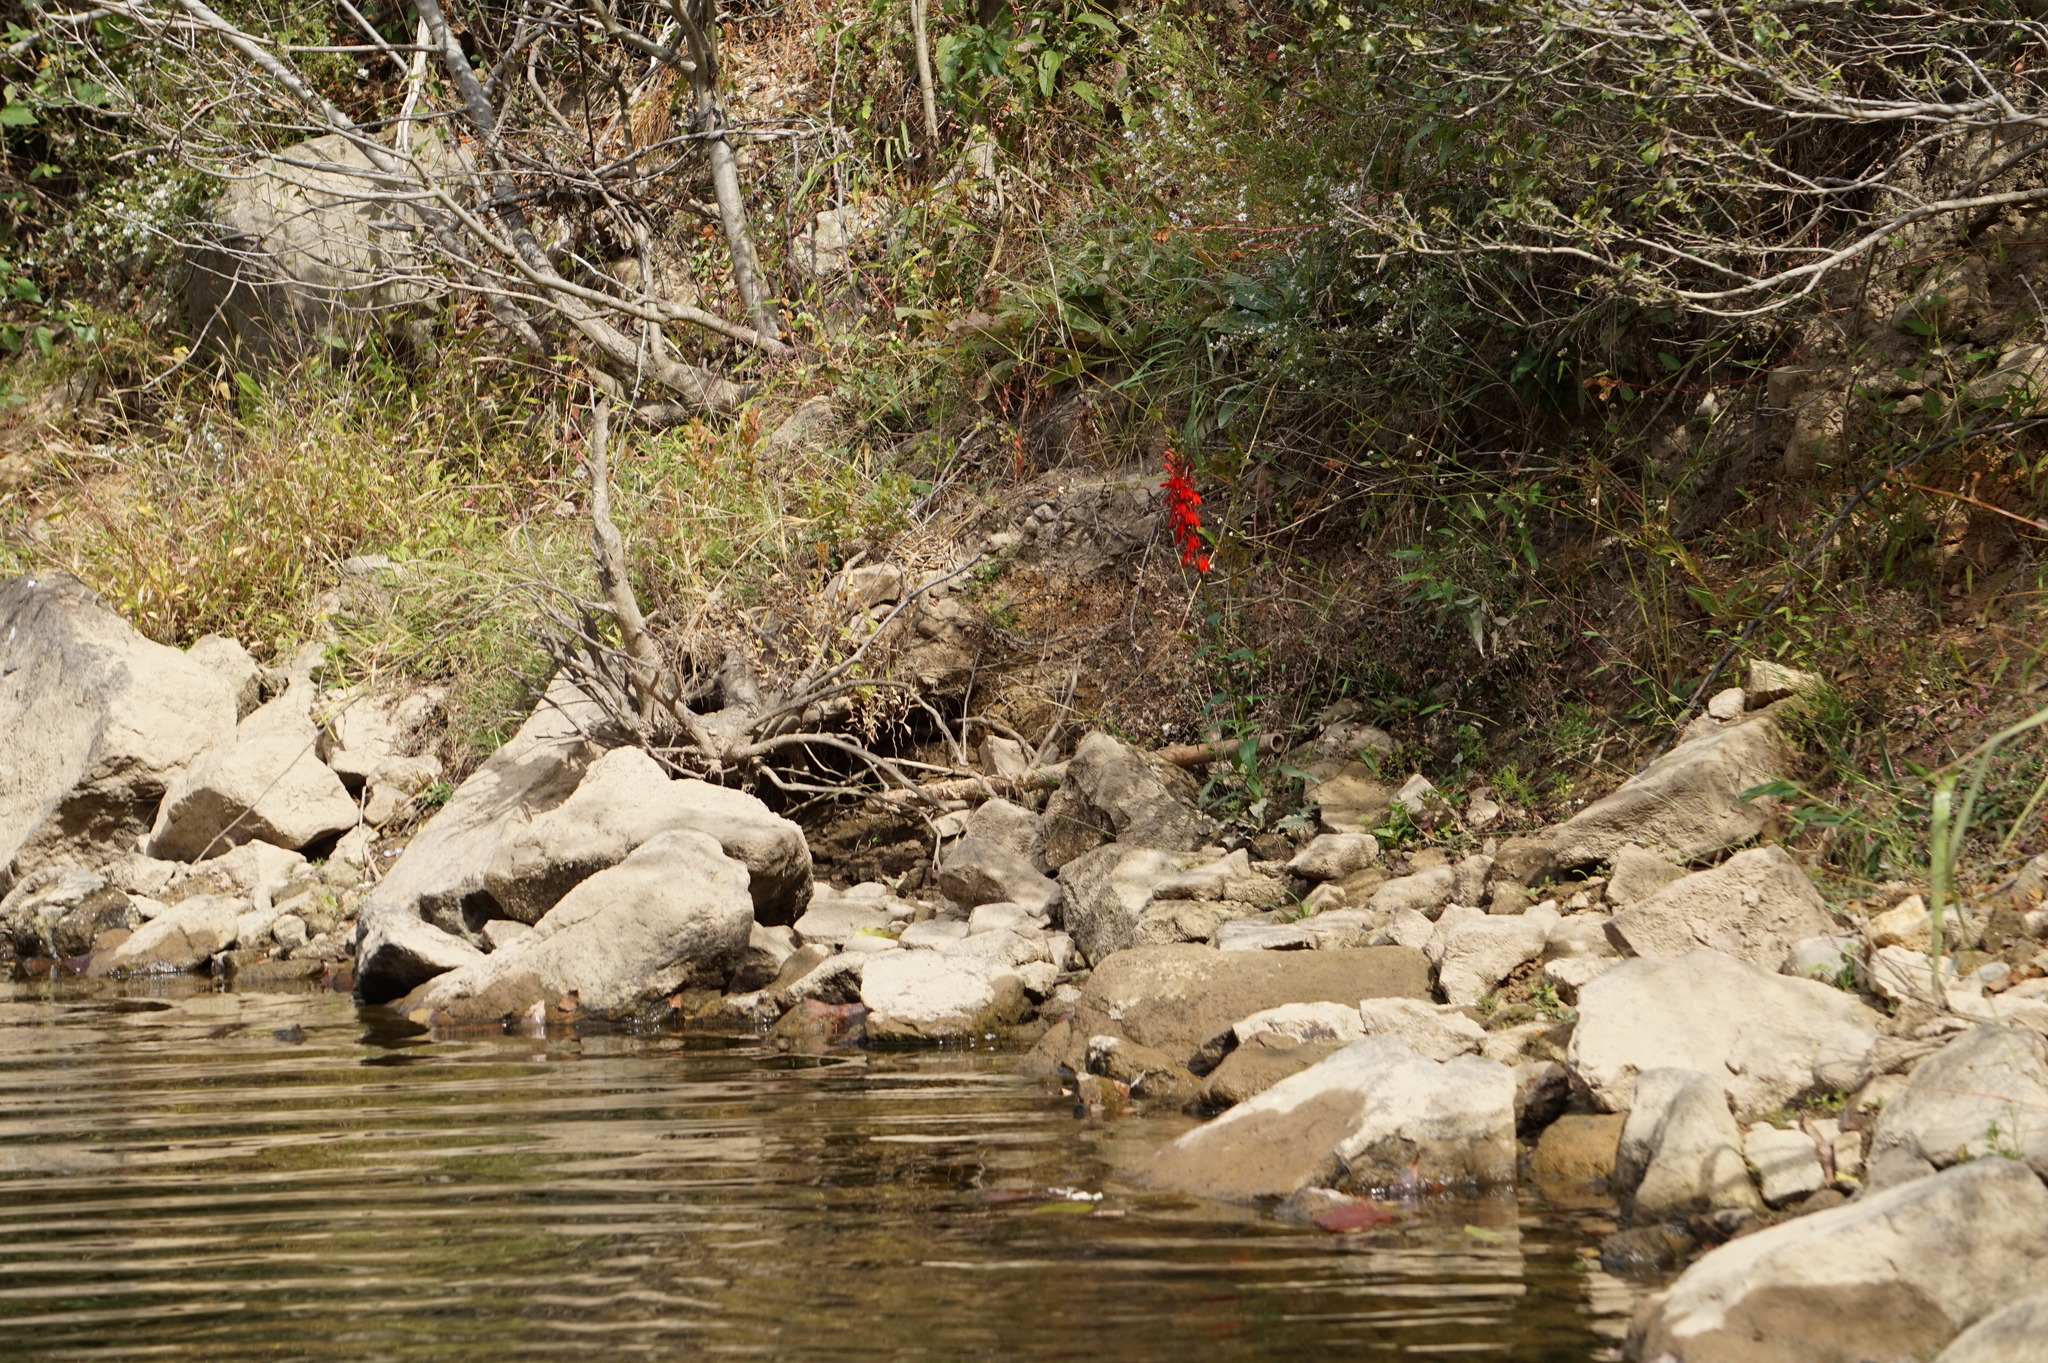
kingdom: Plantae
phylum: Tracheophyta
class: Magnoliopsida
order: Asterales
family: Campanulaceae
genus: Lobelia
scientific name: Lobelia cardinalis
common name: Cardinal flower
